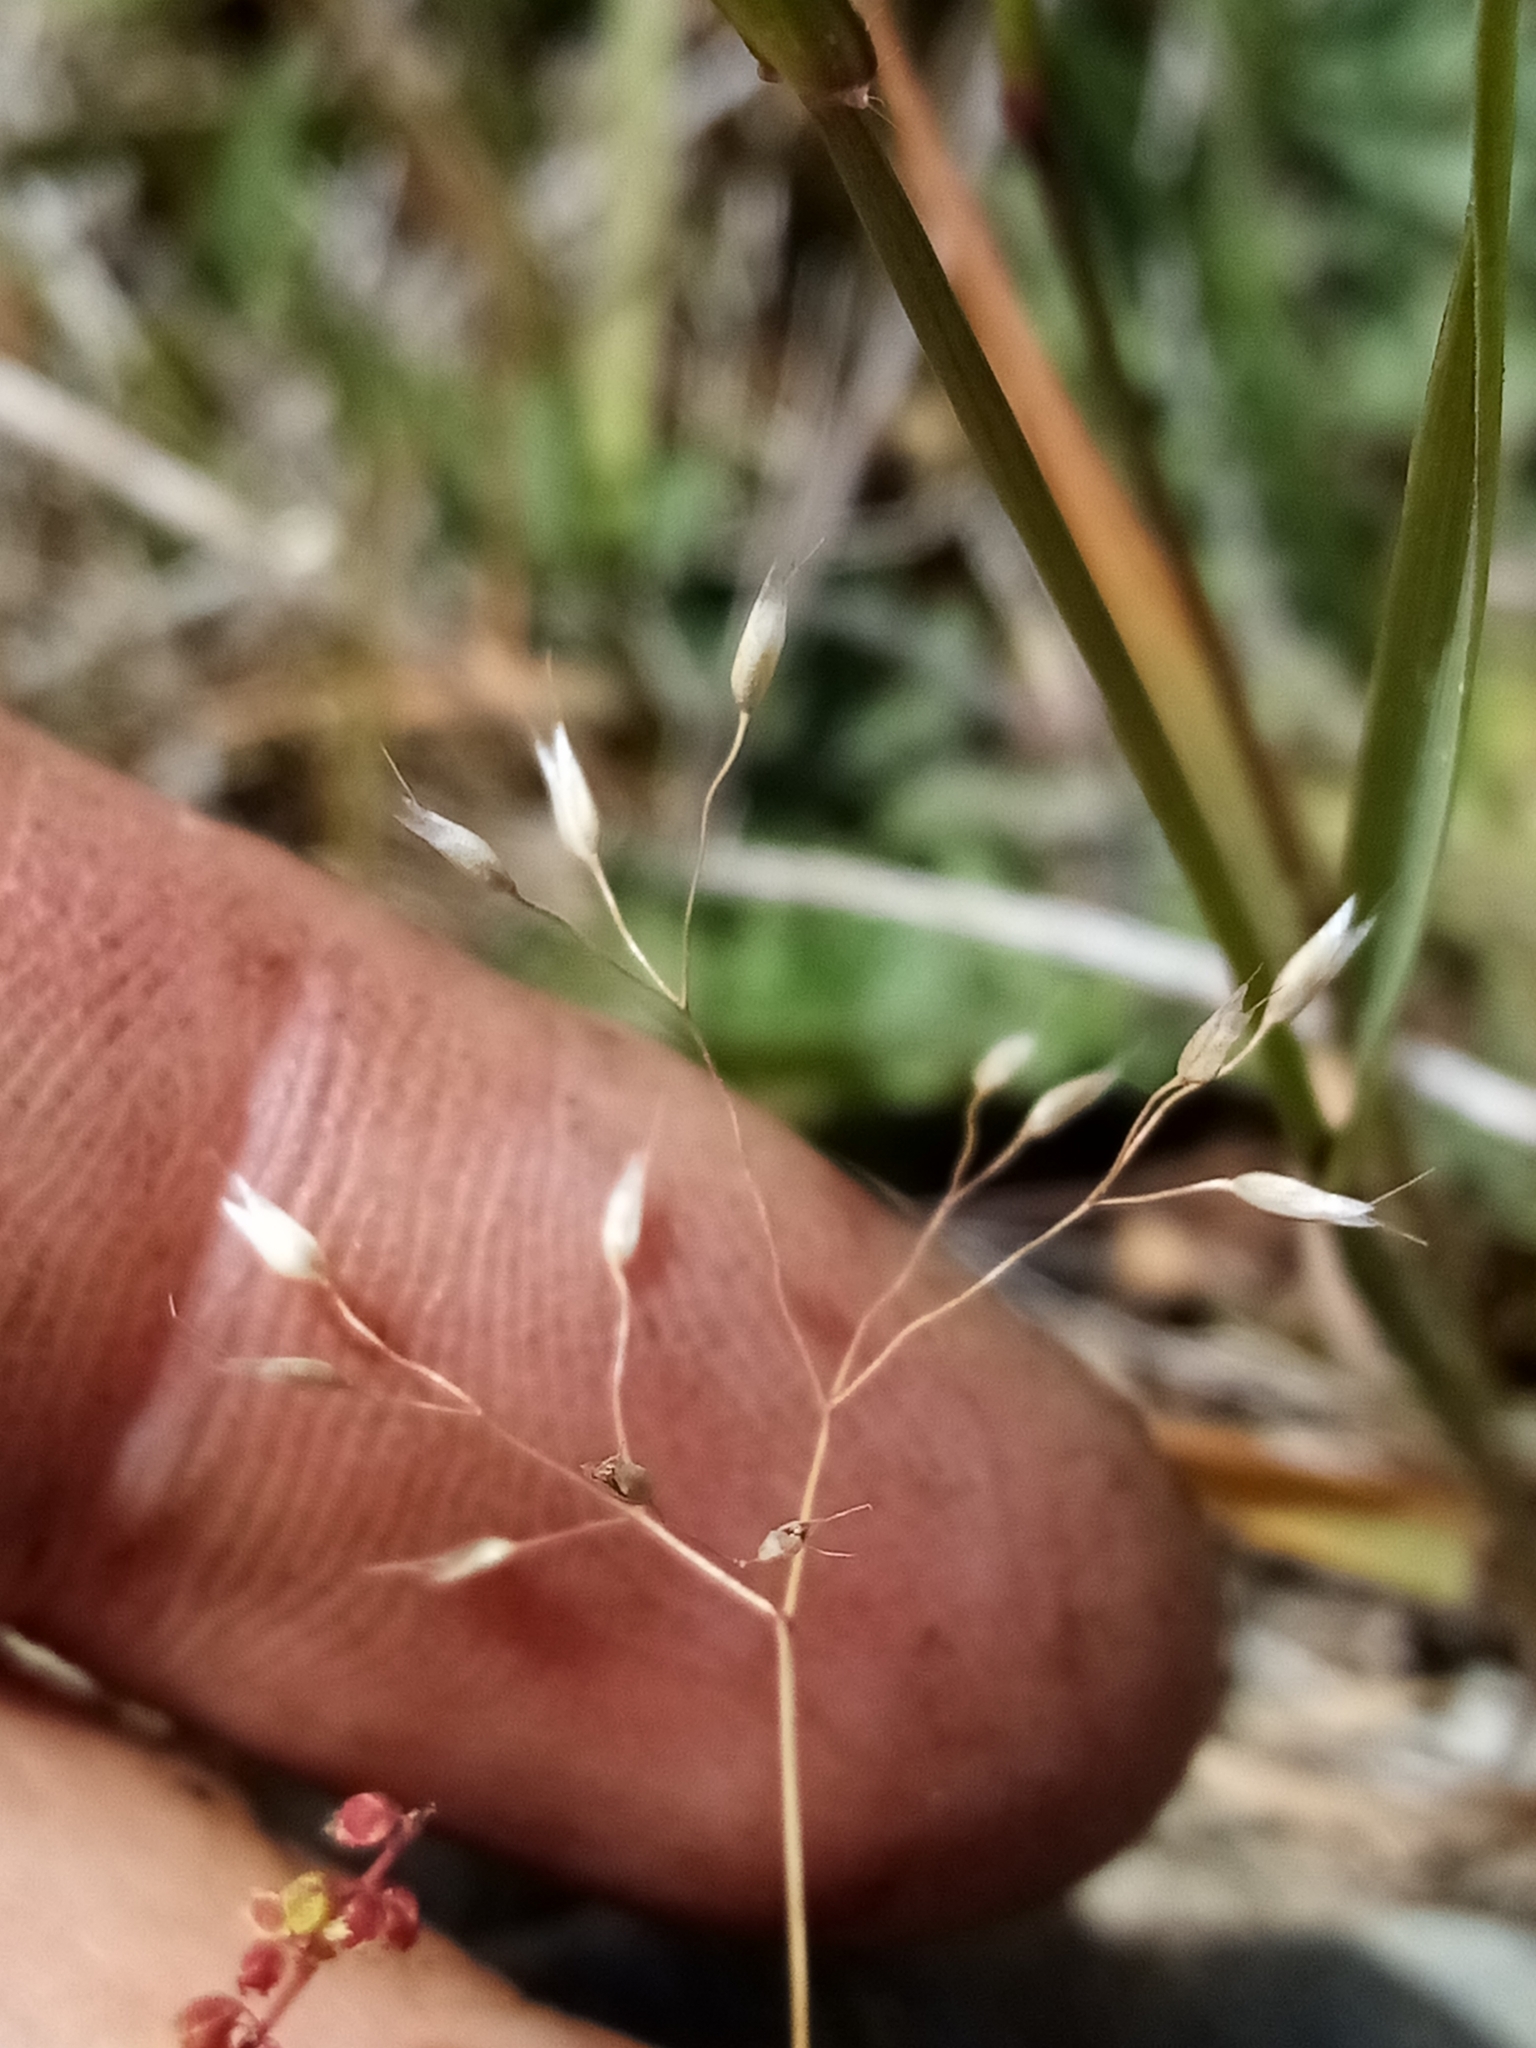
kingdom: Plantae
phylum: Tracheophyta
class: Liliopsida
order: Poales
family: Poaceae
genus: Aira
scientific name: Aira caryophyllea
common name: Silver hairgrass
